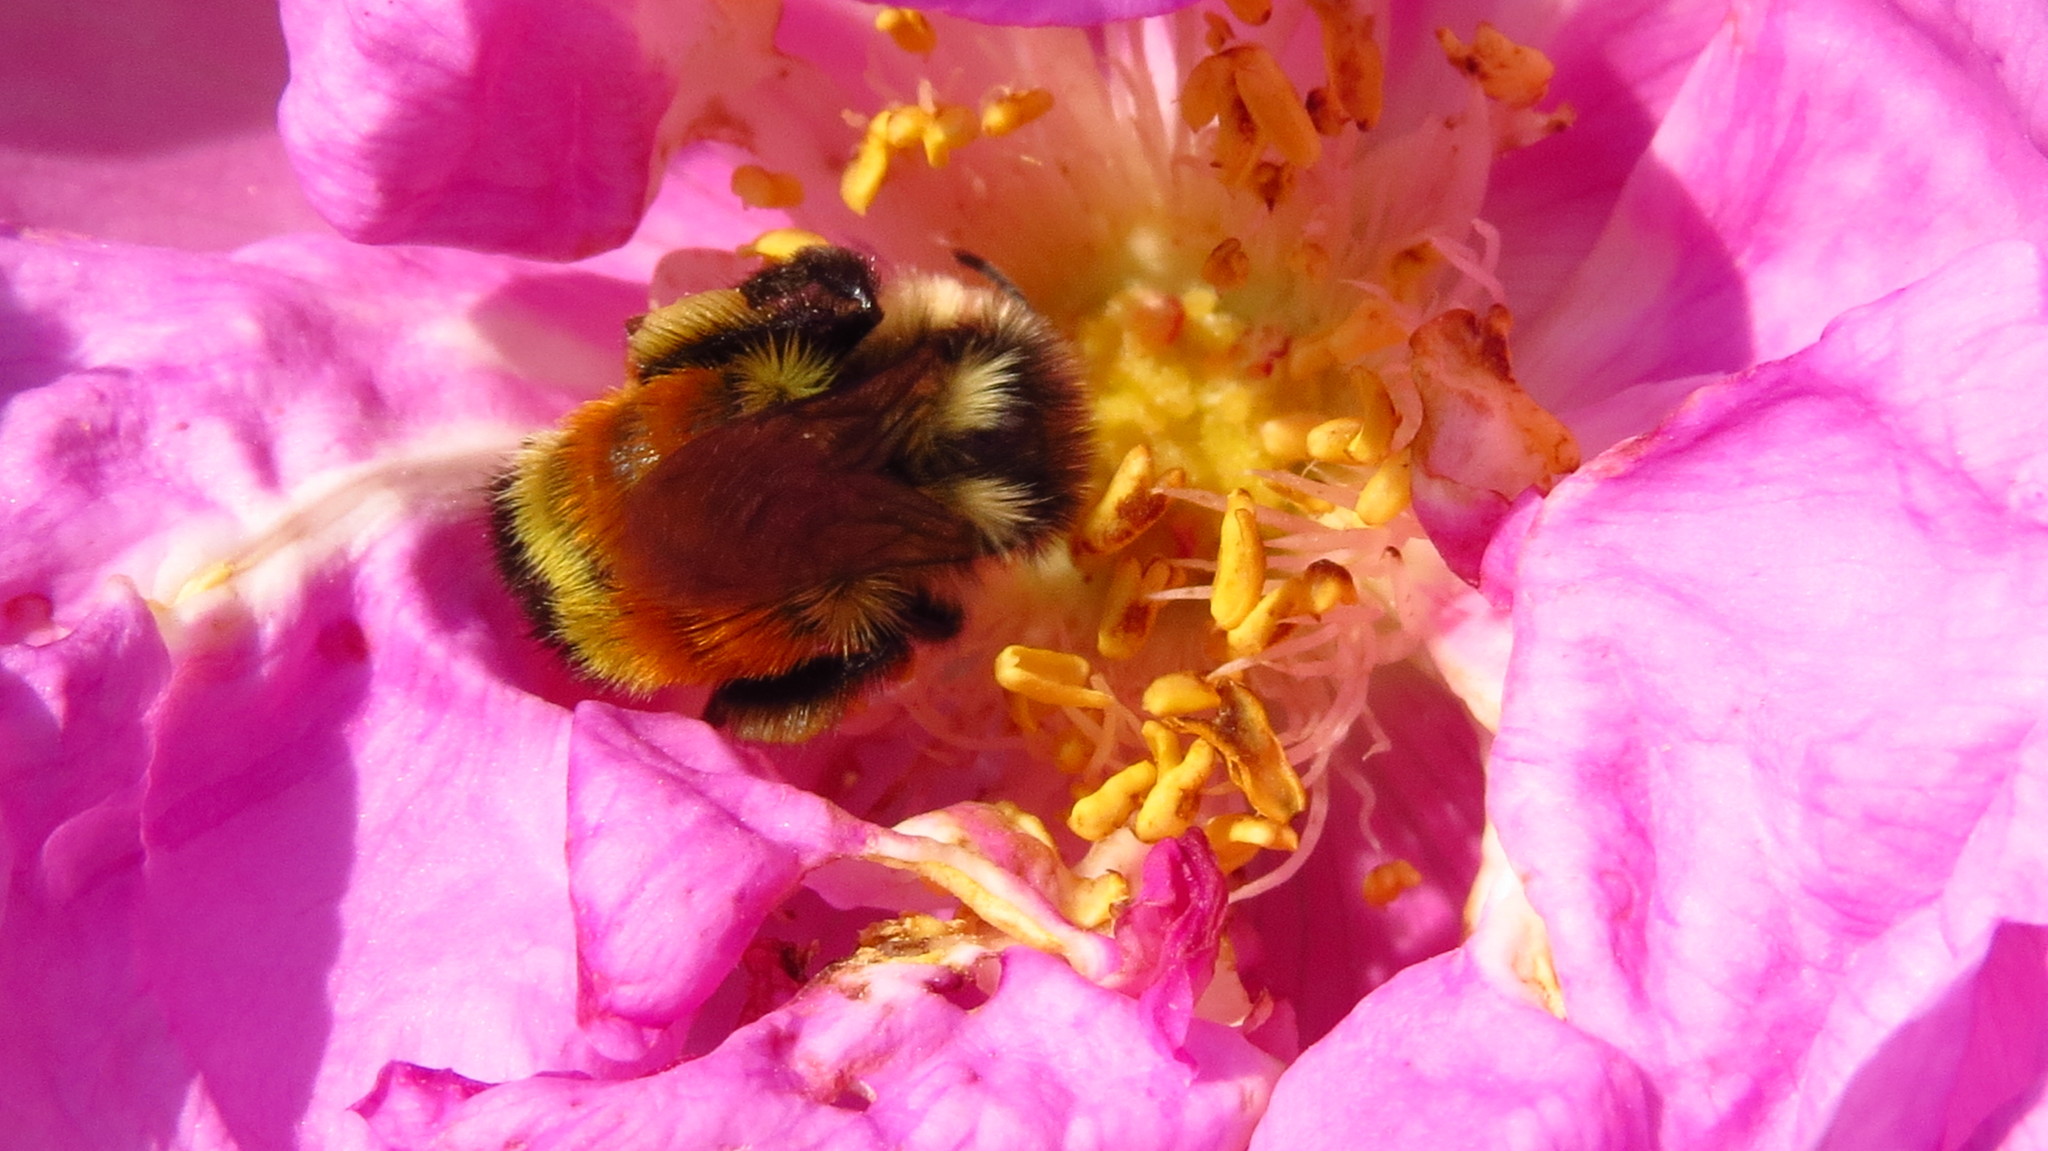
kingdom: Animalia
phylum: Arthropoda
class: Insecta
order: Hymenoptera
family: Apidae
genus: Bombus
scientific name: Bombus ternarius
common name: Tri-colored bumble bee
